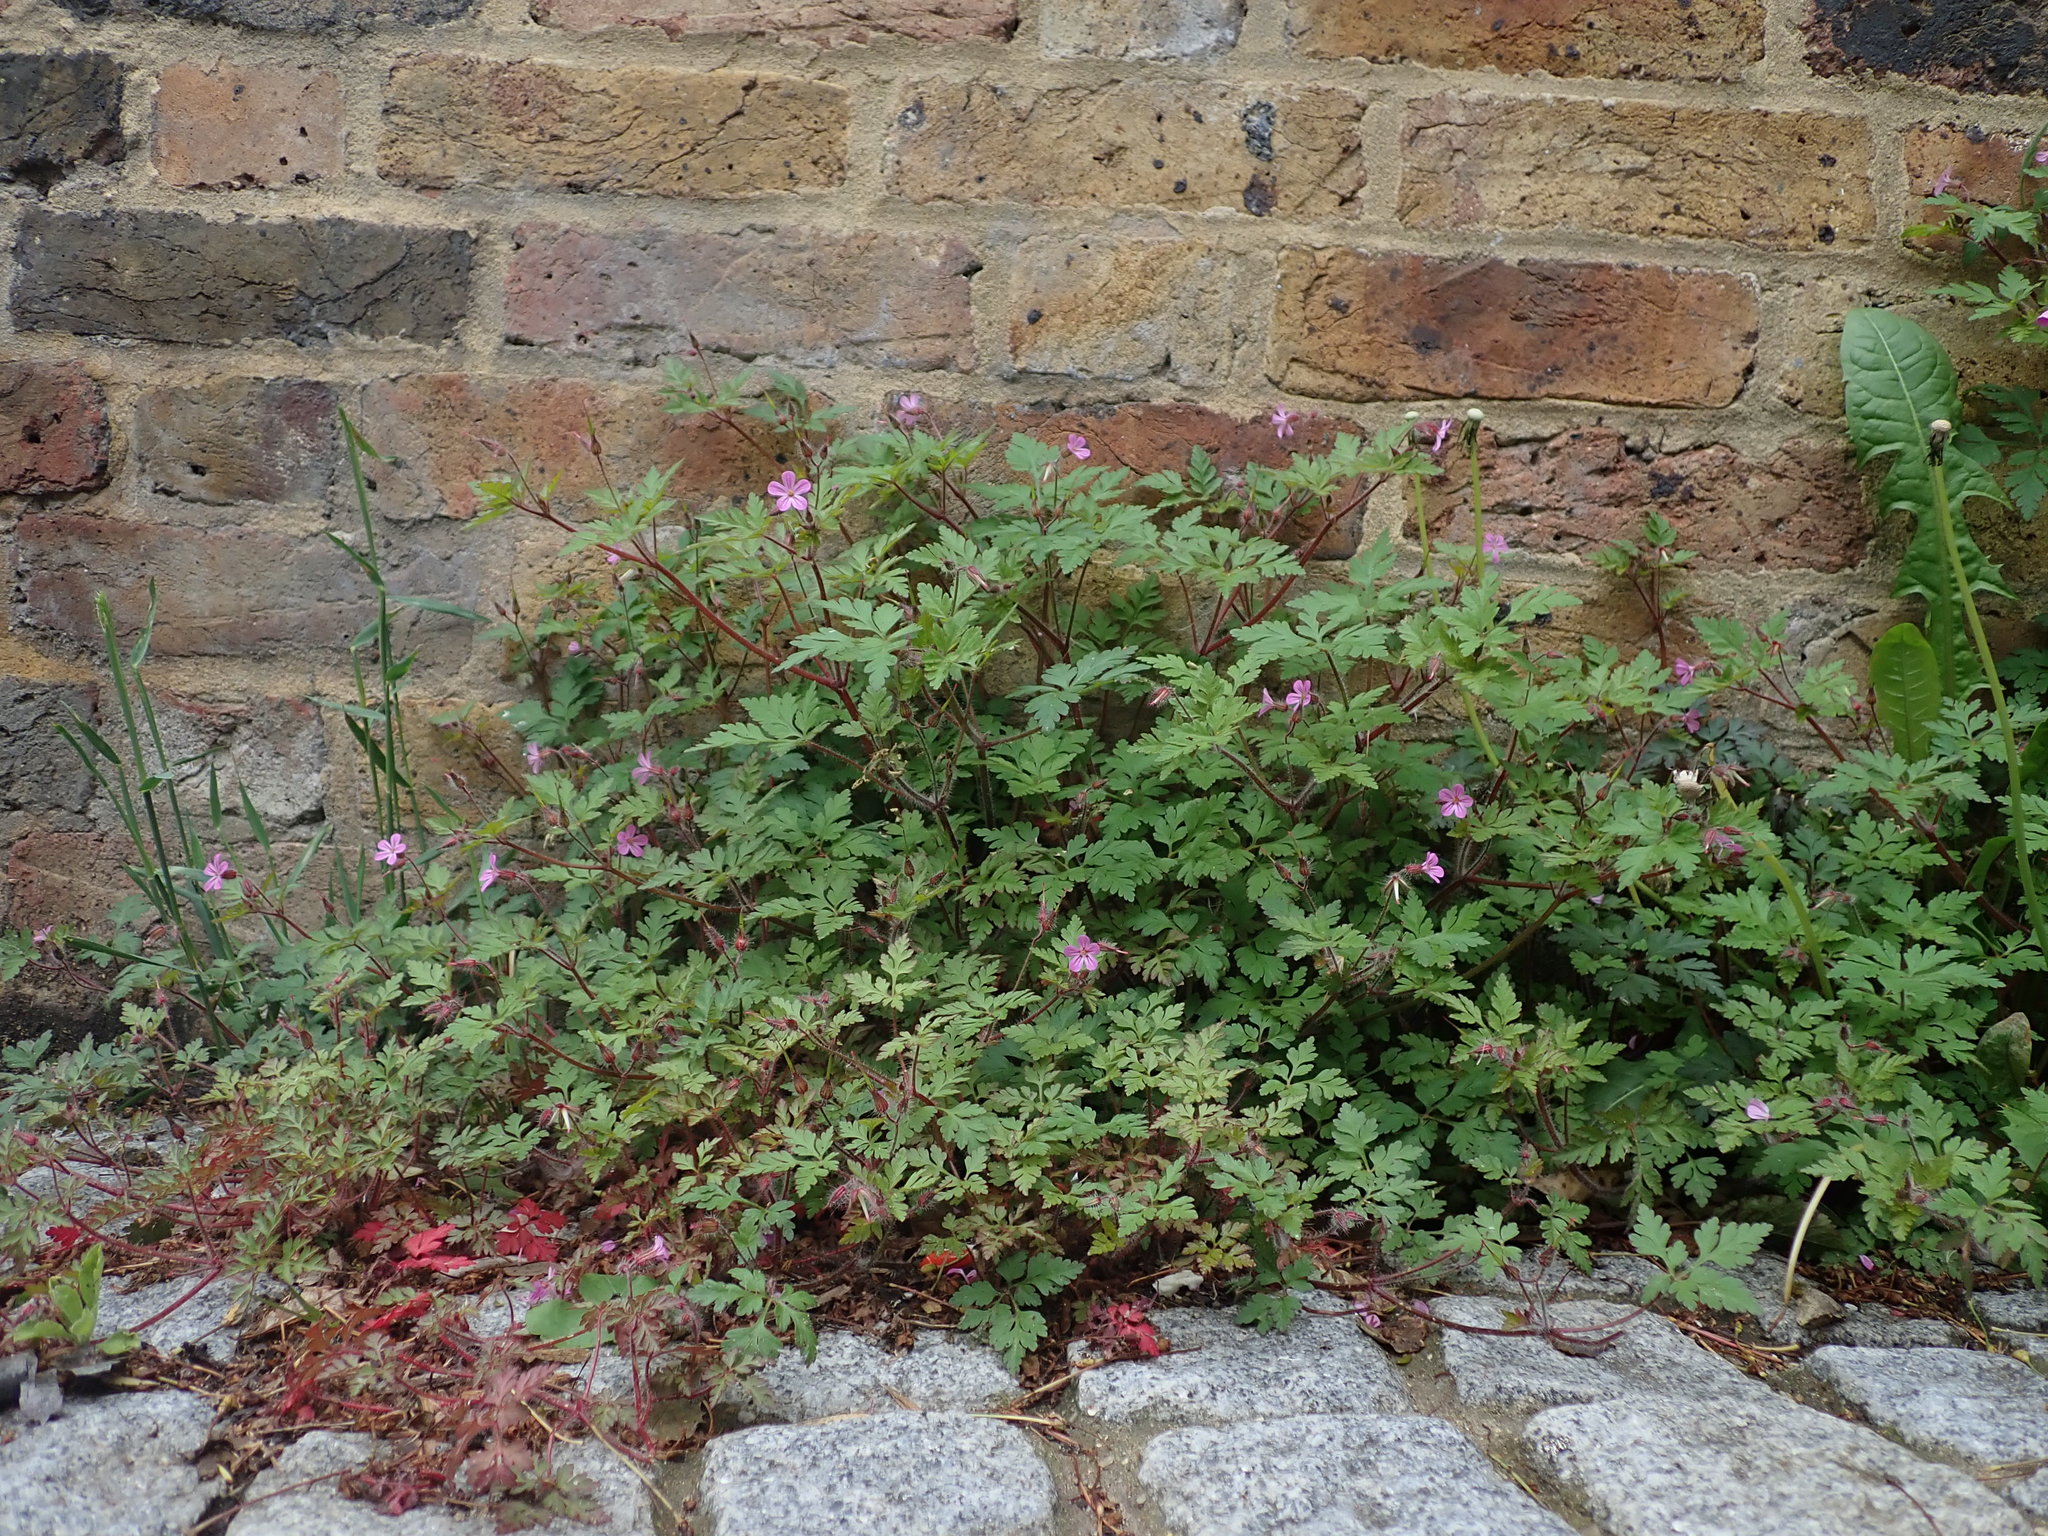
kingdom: Plantae
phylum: Tracheophyta
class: Magnoliopsida
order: Geraniales
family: Geraniaceae
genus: Geranium
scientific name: Geranium robertianum
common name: Herb-robert
